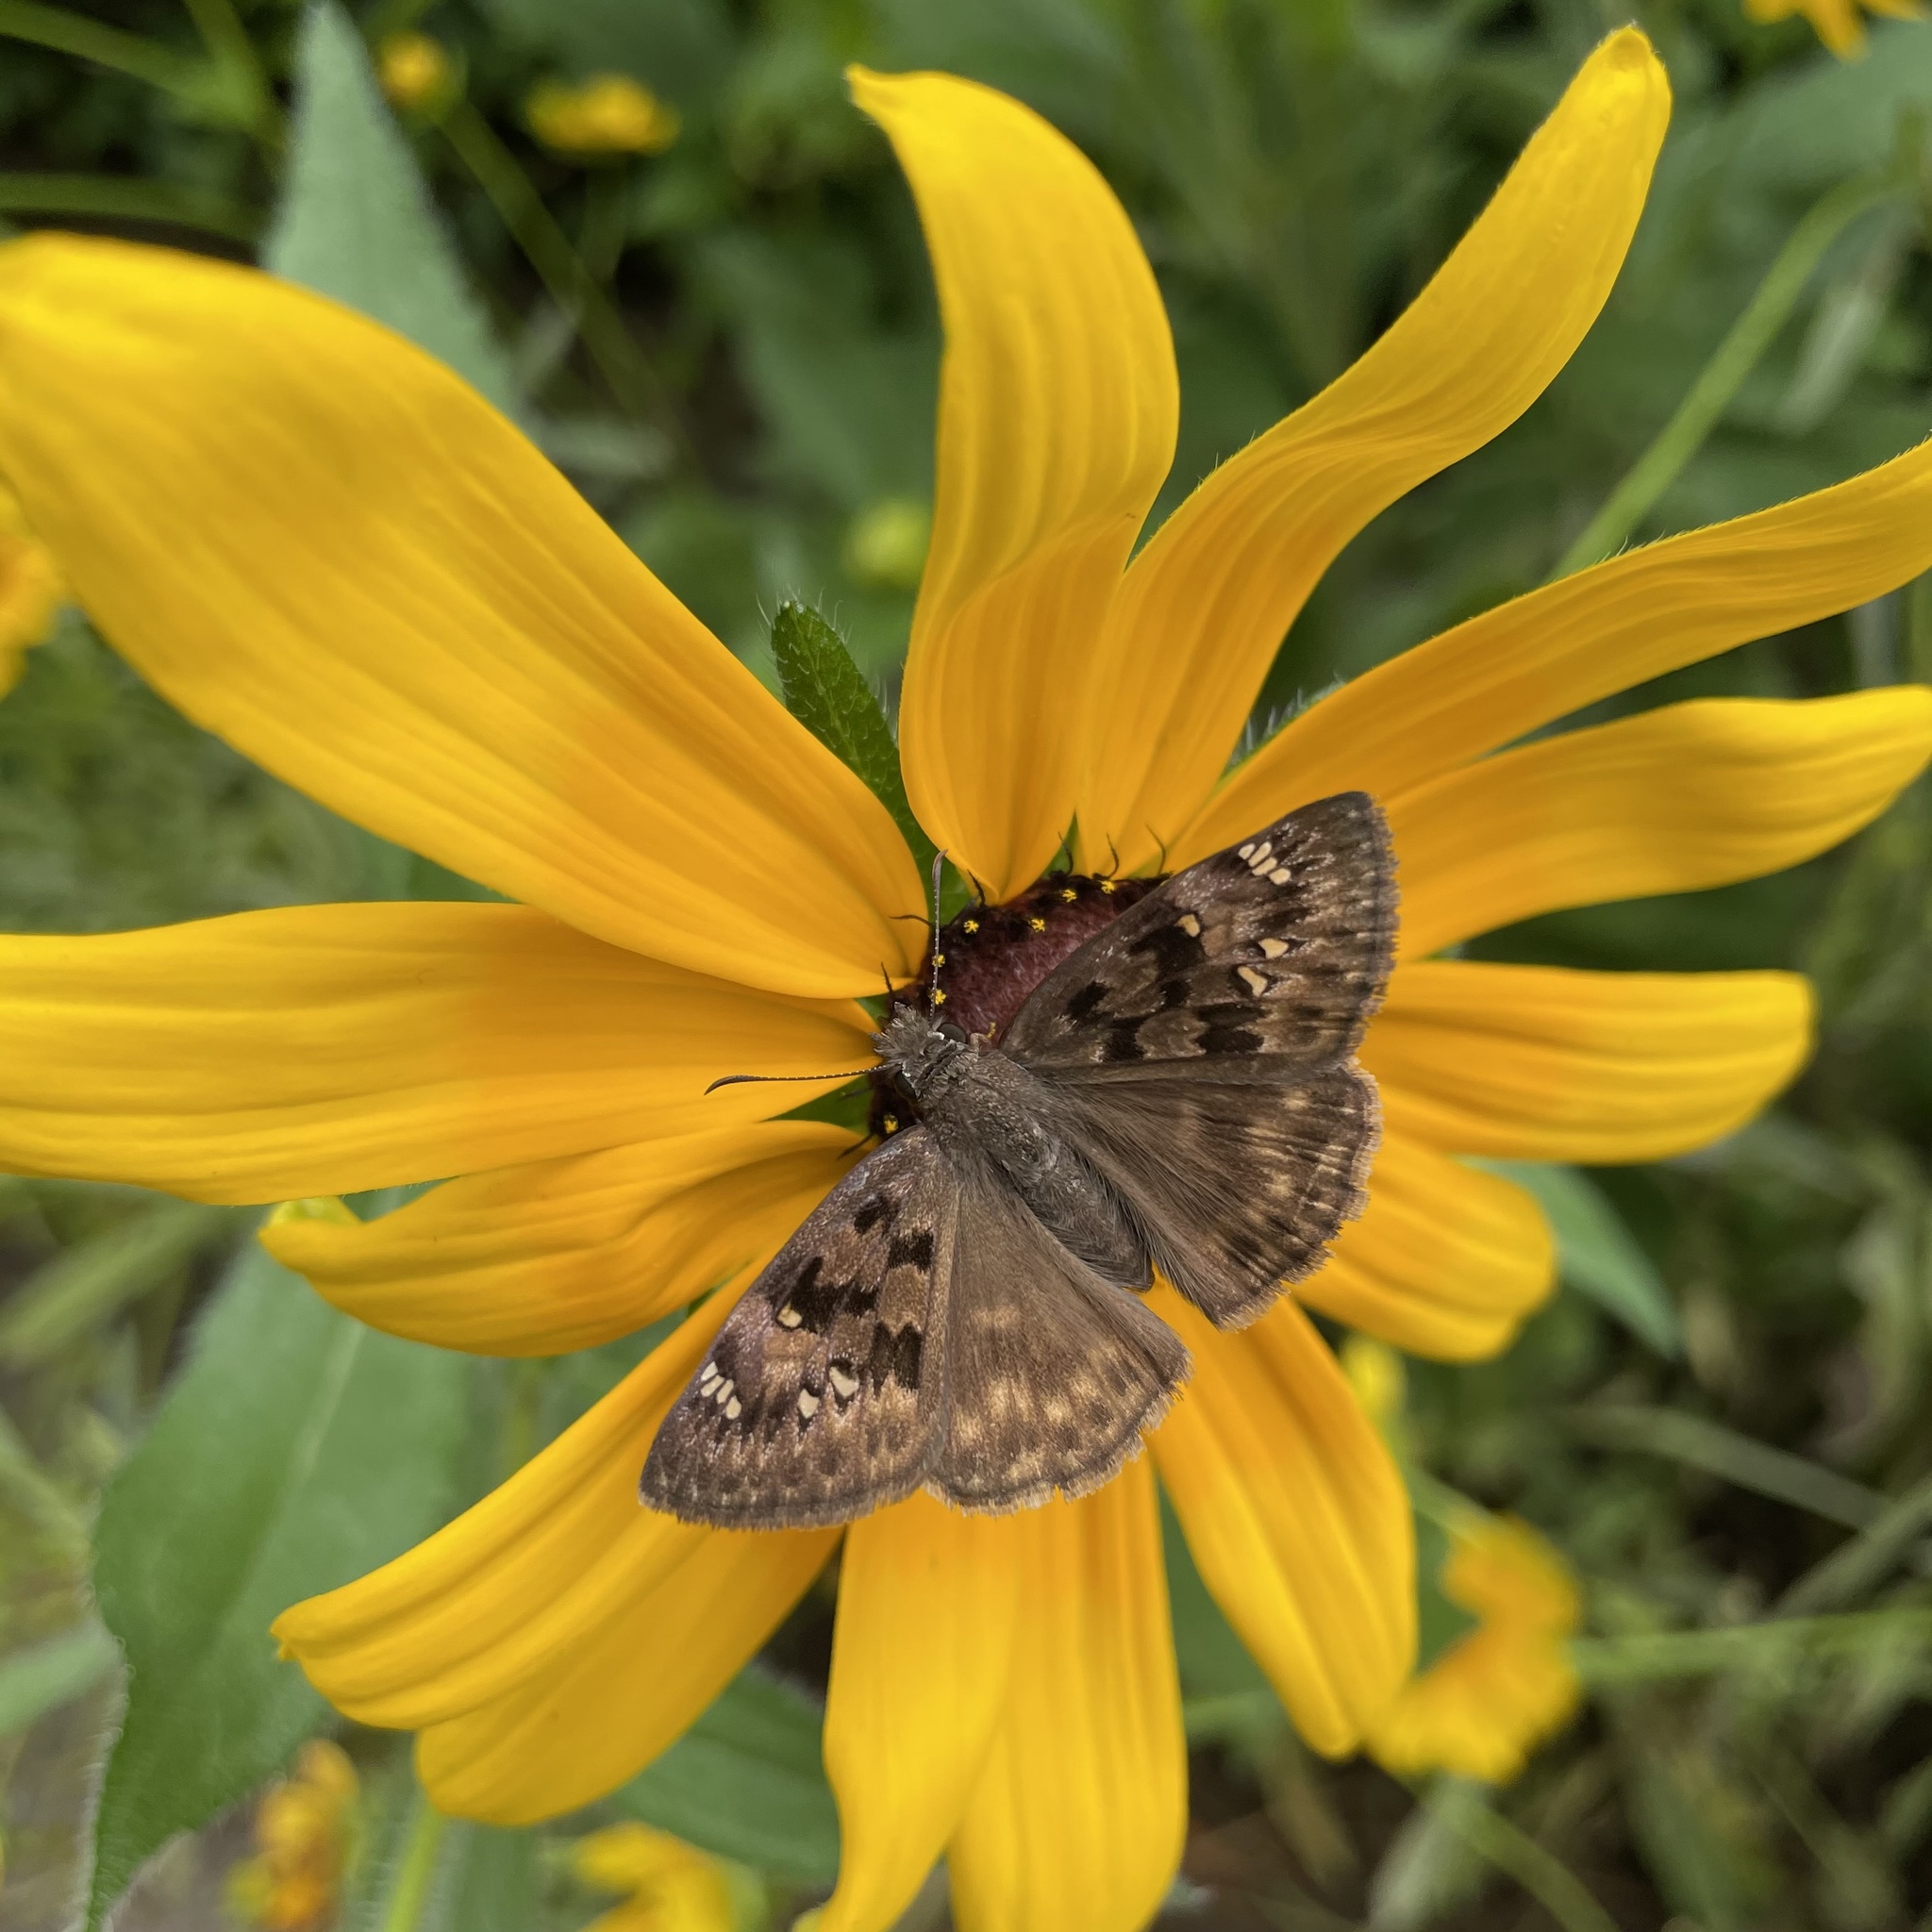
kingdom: Animalia
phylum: Arthropoda
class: Insecta
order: Lepidoptera
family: Hesperiidae
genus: Erynnis
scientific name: Erynnis horatius
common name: Horace's duskywing
